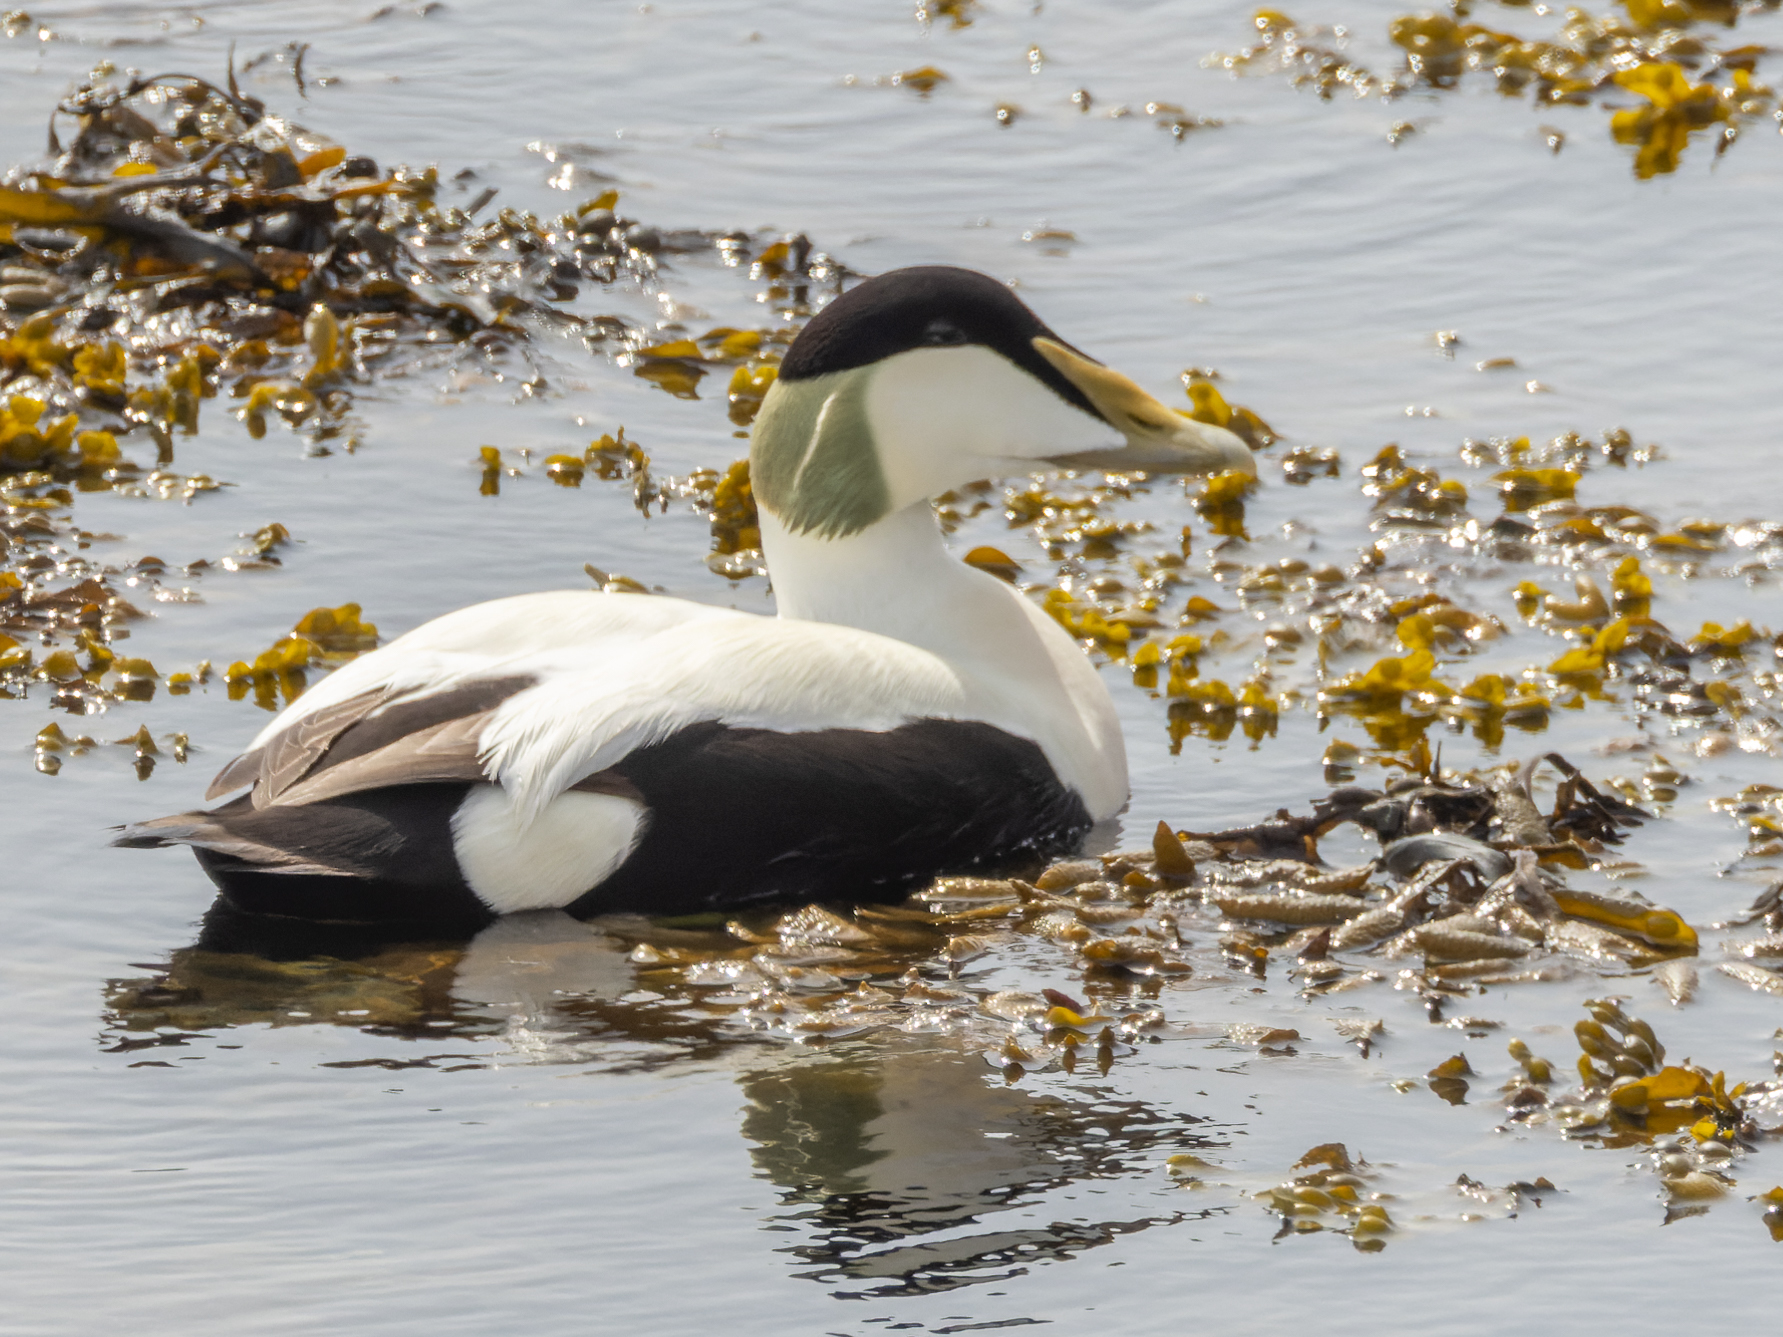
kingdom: Animalia
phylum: Chordata
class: Aves
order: Anseriformes
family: Anatidae
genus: Somateria
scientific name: Somateria mollissima
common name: Common eider
